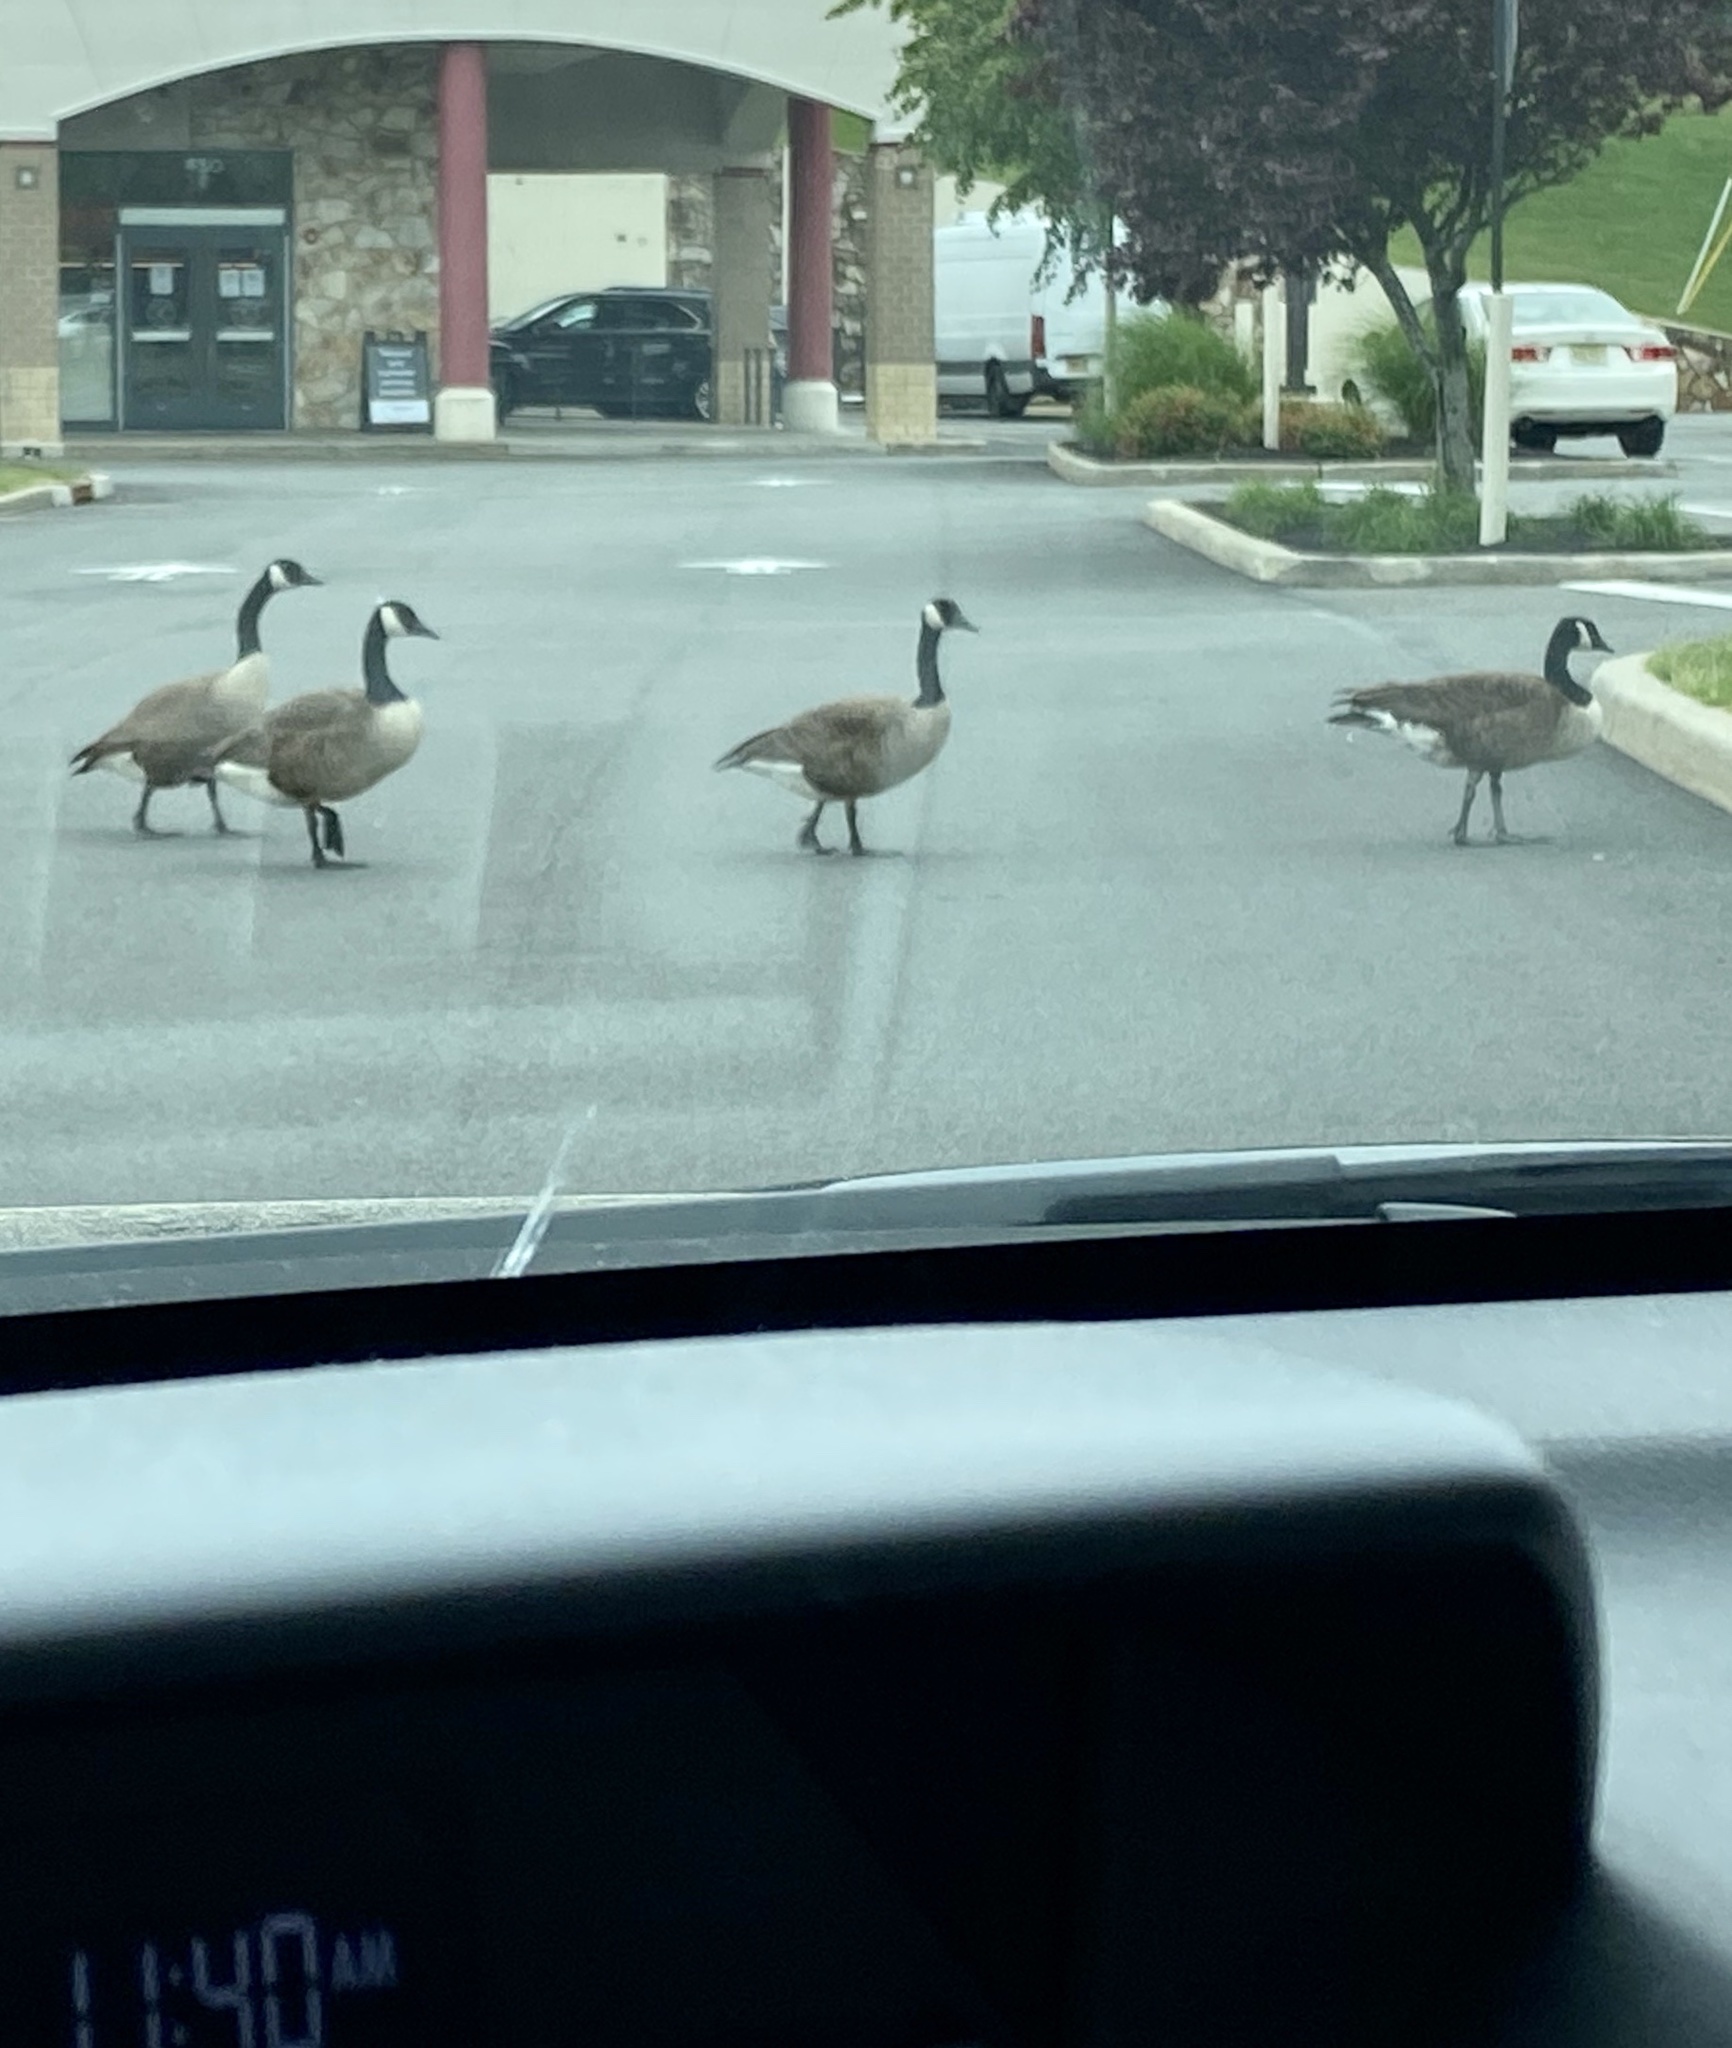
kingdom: Animalia
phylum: Chordata
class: Aves
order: Anseriformes
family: Anatidae
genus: Branta
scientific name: Branta canadensis
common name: Canada goose
